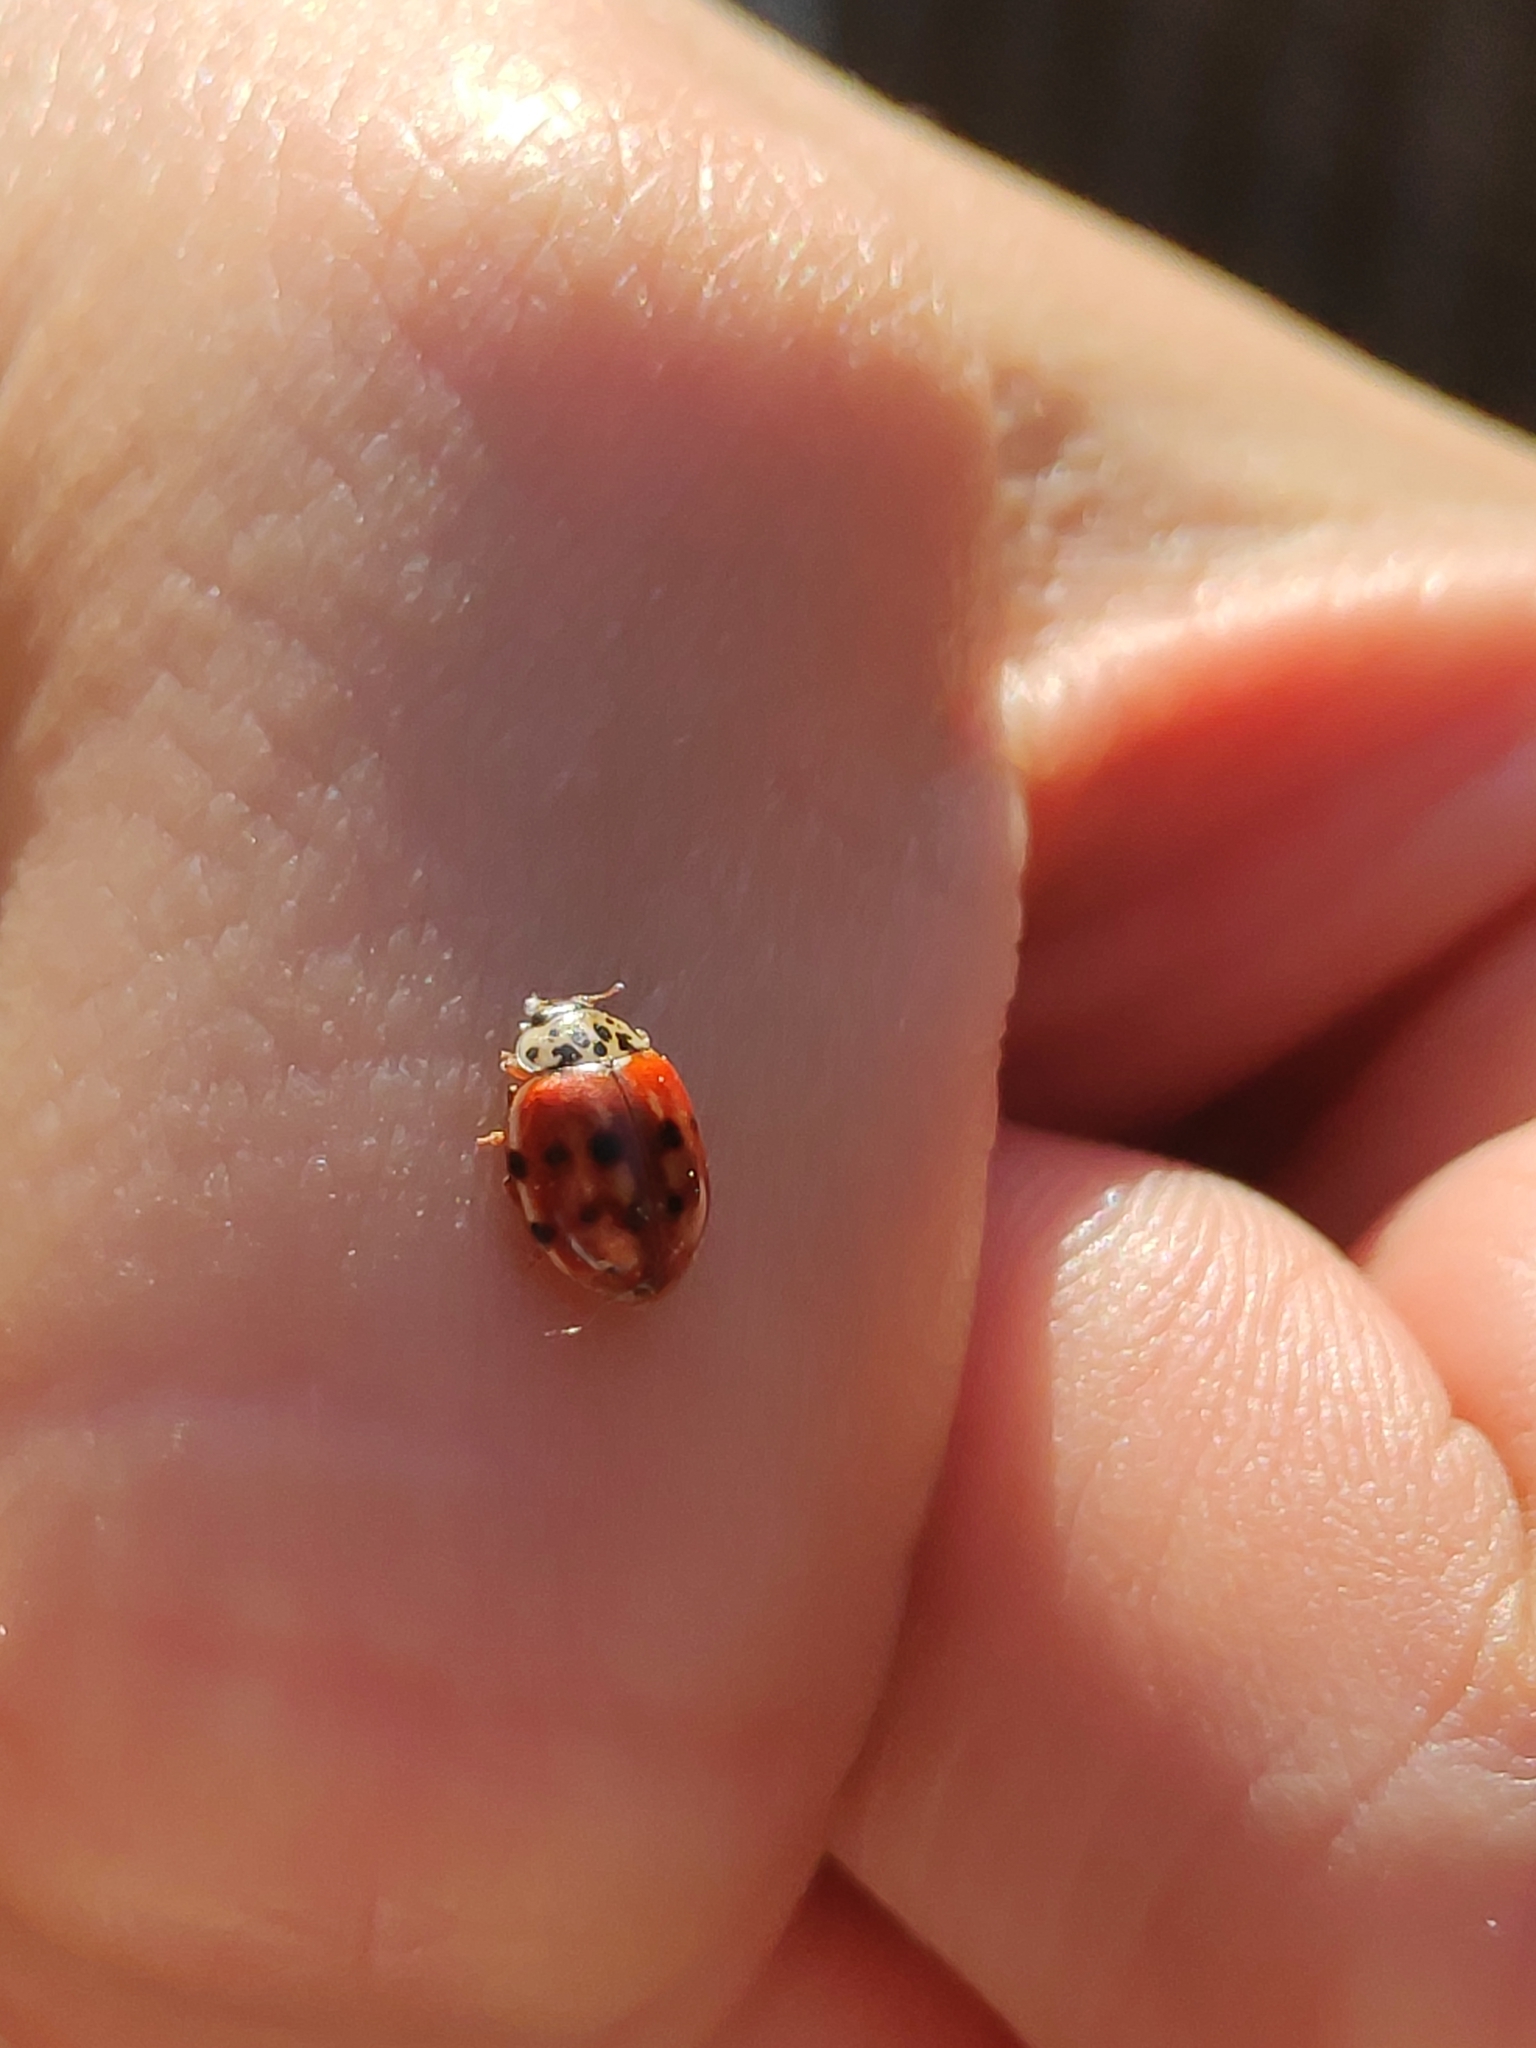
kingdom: Animalia
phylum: Arthropoda
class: Insecta
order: Coleoptera
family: Coccinellidae
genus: Harmonia
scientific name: Harmonia quadripunctata
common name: Cream-streaked ladybird
